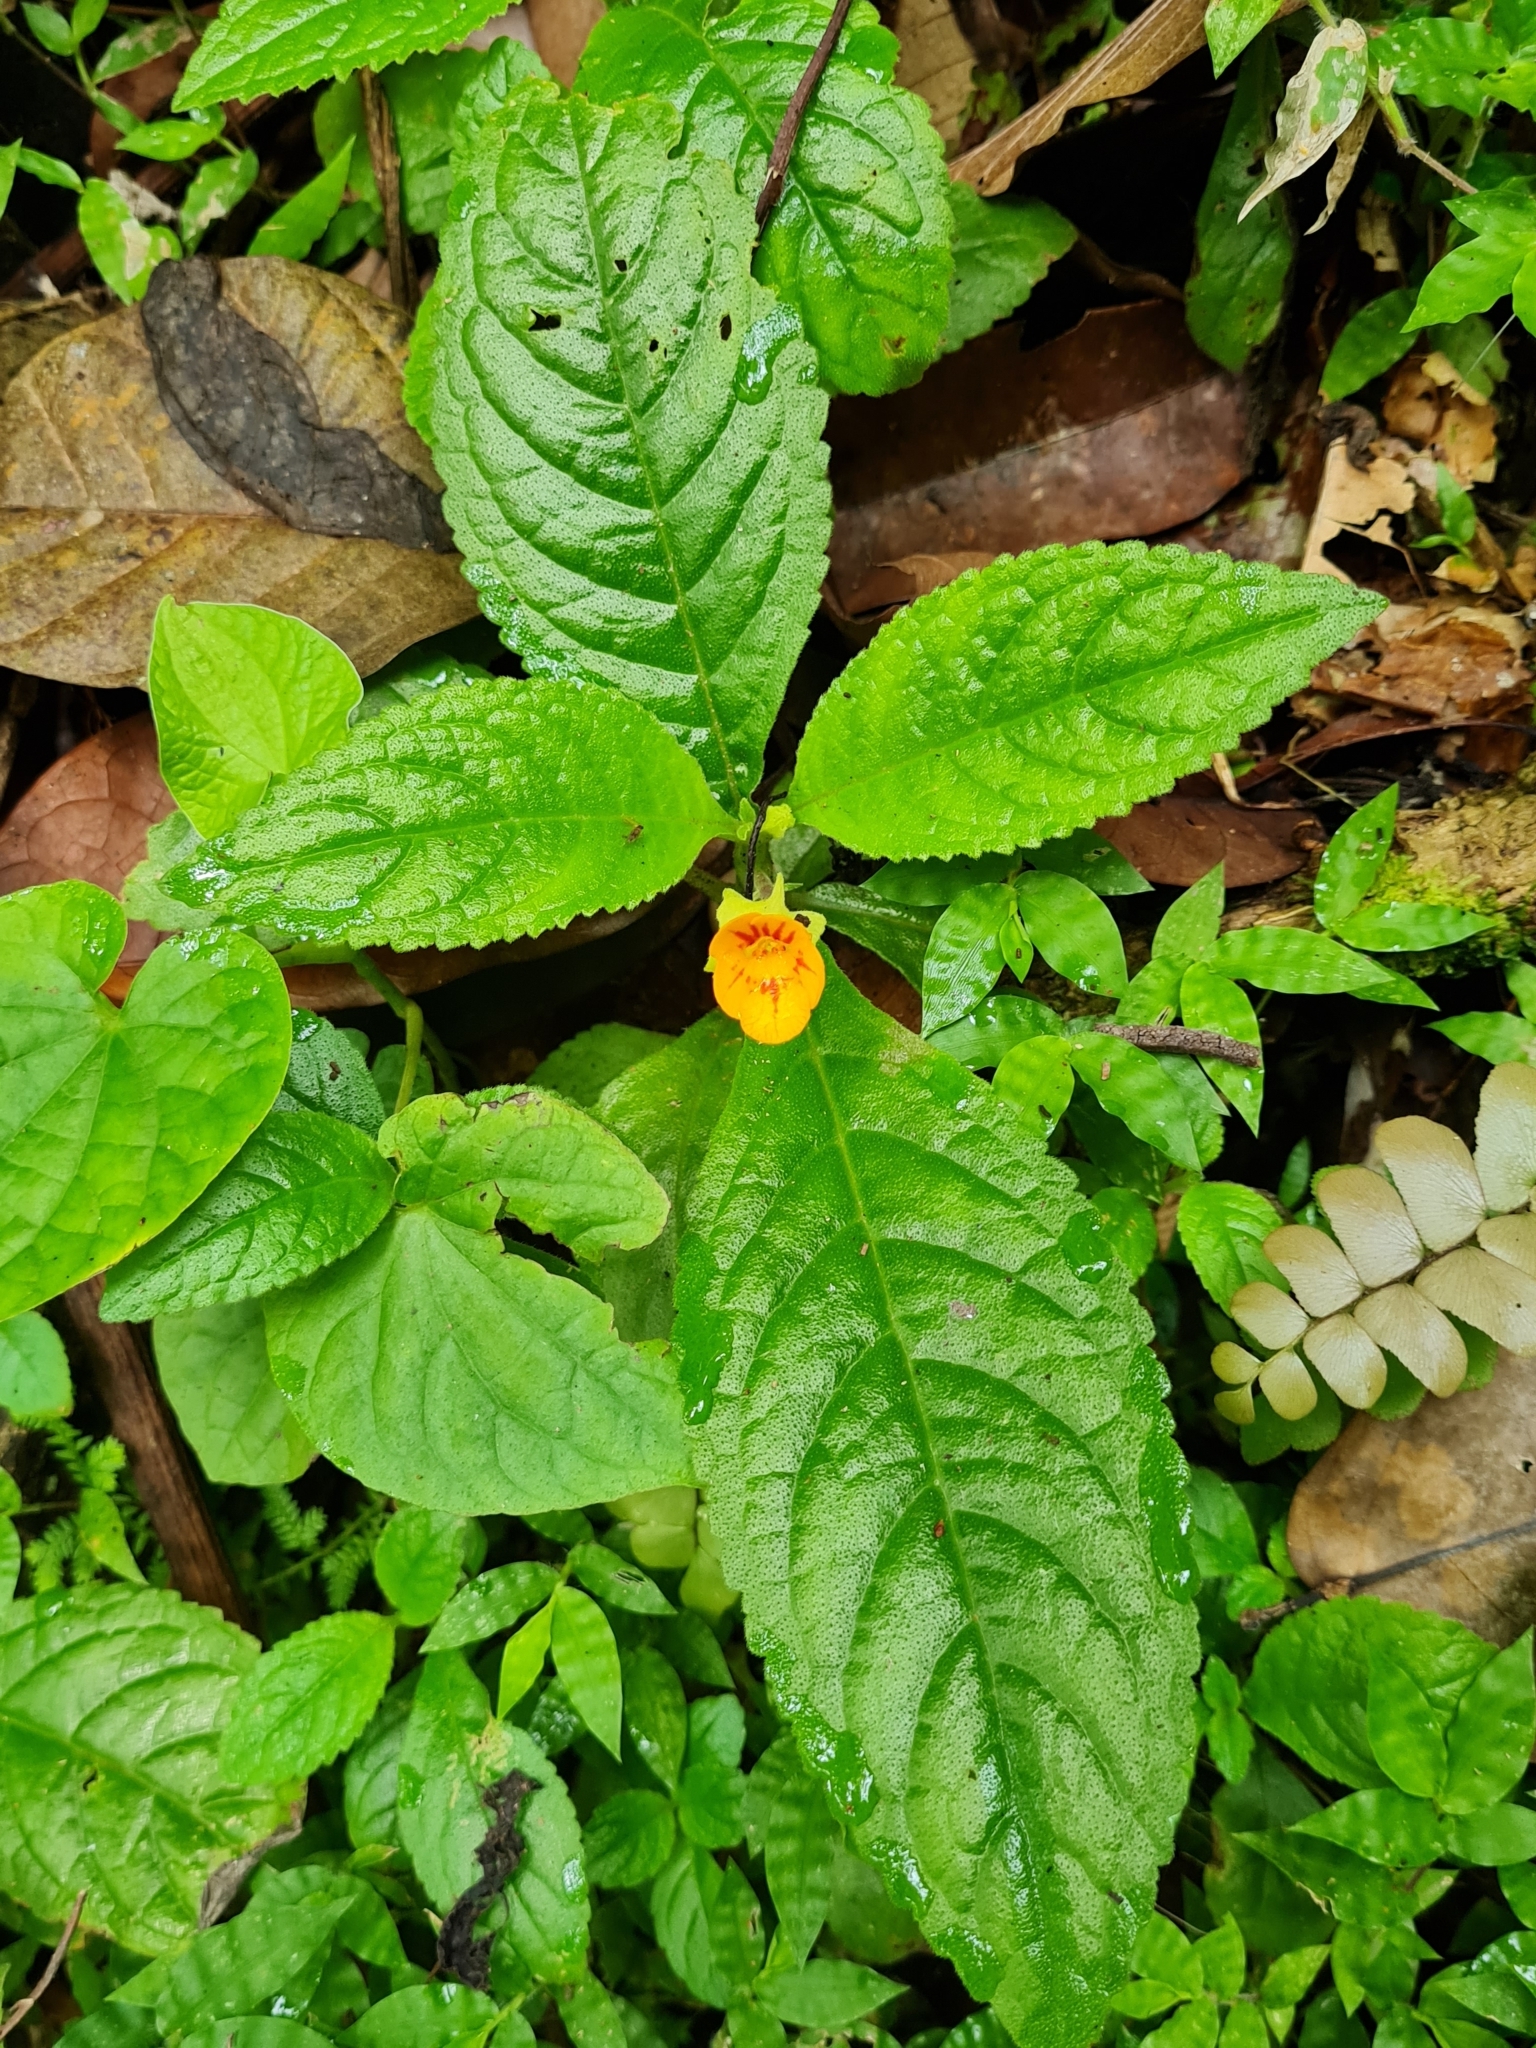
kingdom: Plantae
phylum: Tracheophyta
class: Magnoliopsida
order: Lamiales
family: Gesneriaceae
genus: Chrysothemis
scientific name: Chrysothemis friedrichsthaliana
